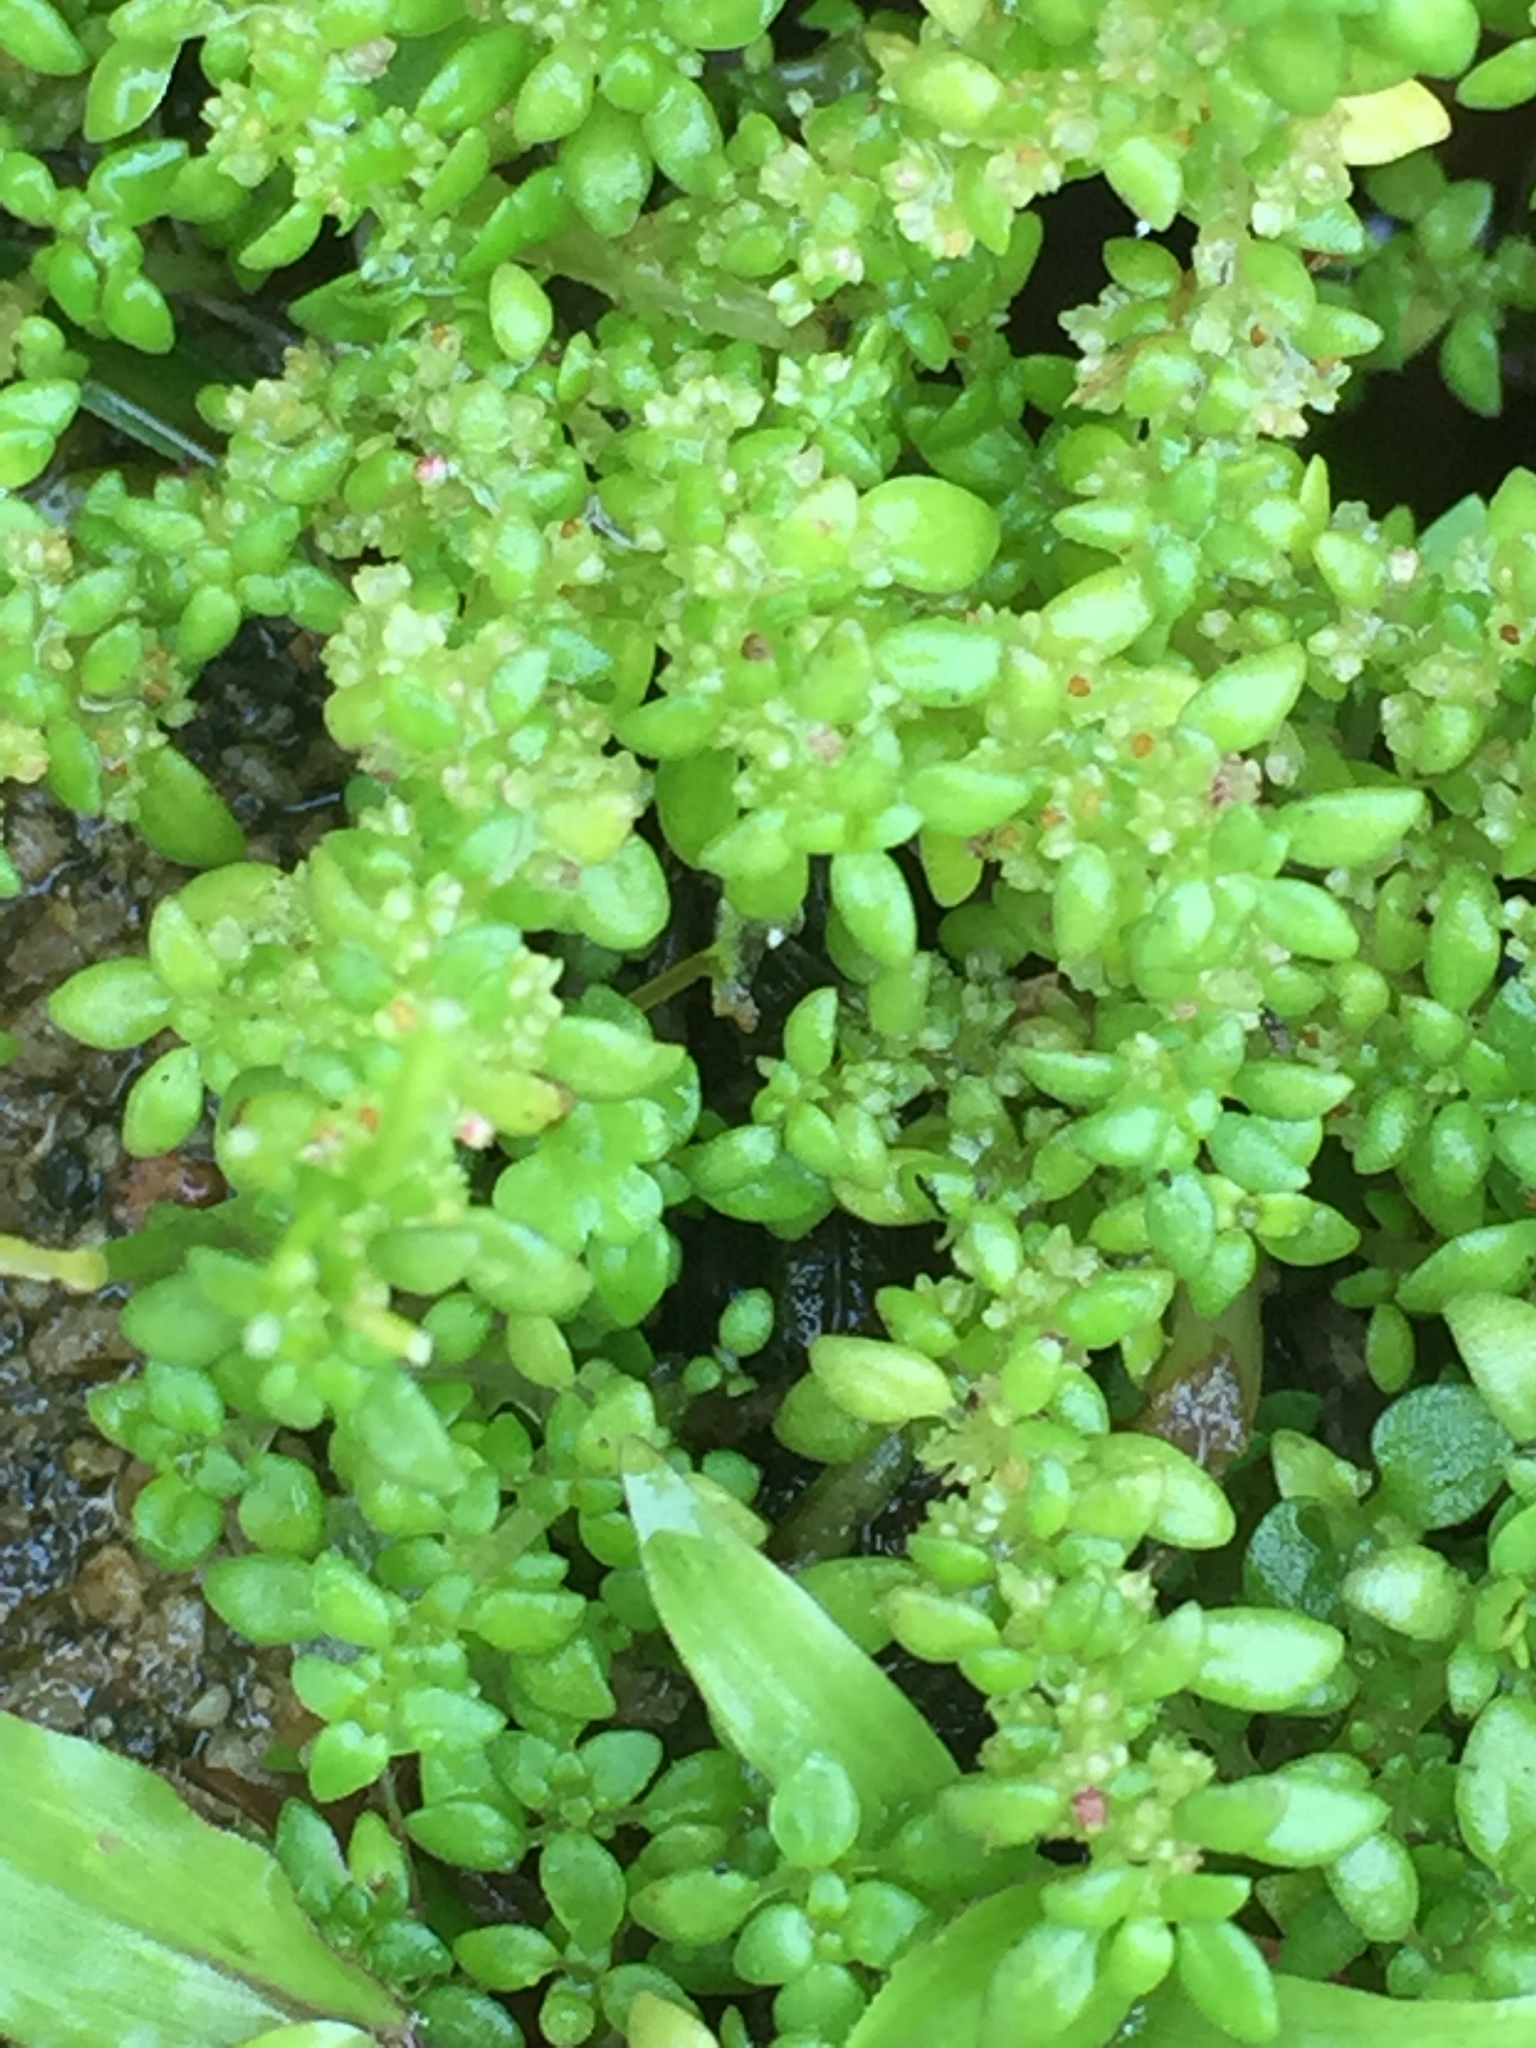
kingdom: Plantae
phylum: Tracheophyta
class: Magnoliopsida
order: Rosales
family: Urticaceae
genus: Pilea
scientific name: Pilea microphylla
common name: Artillery-plant
